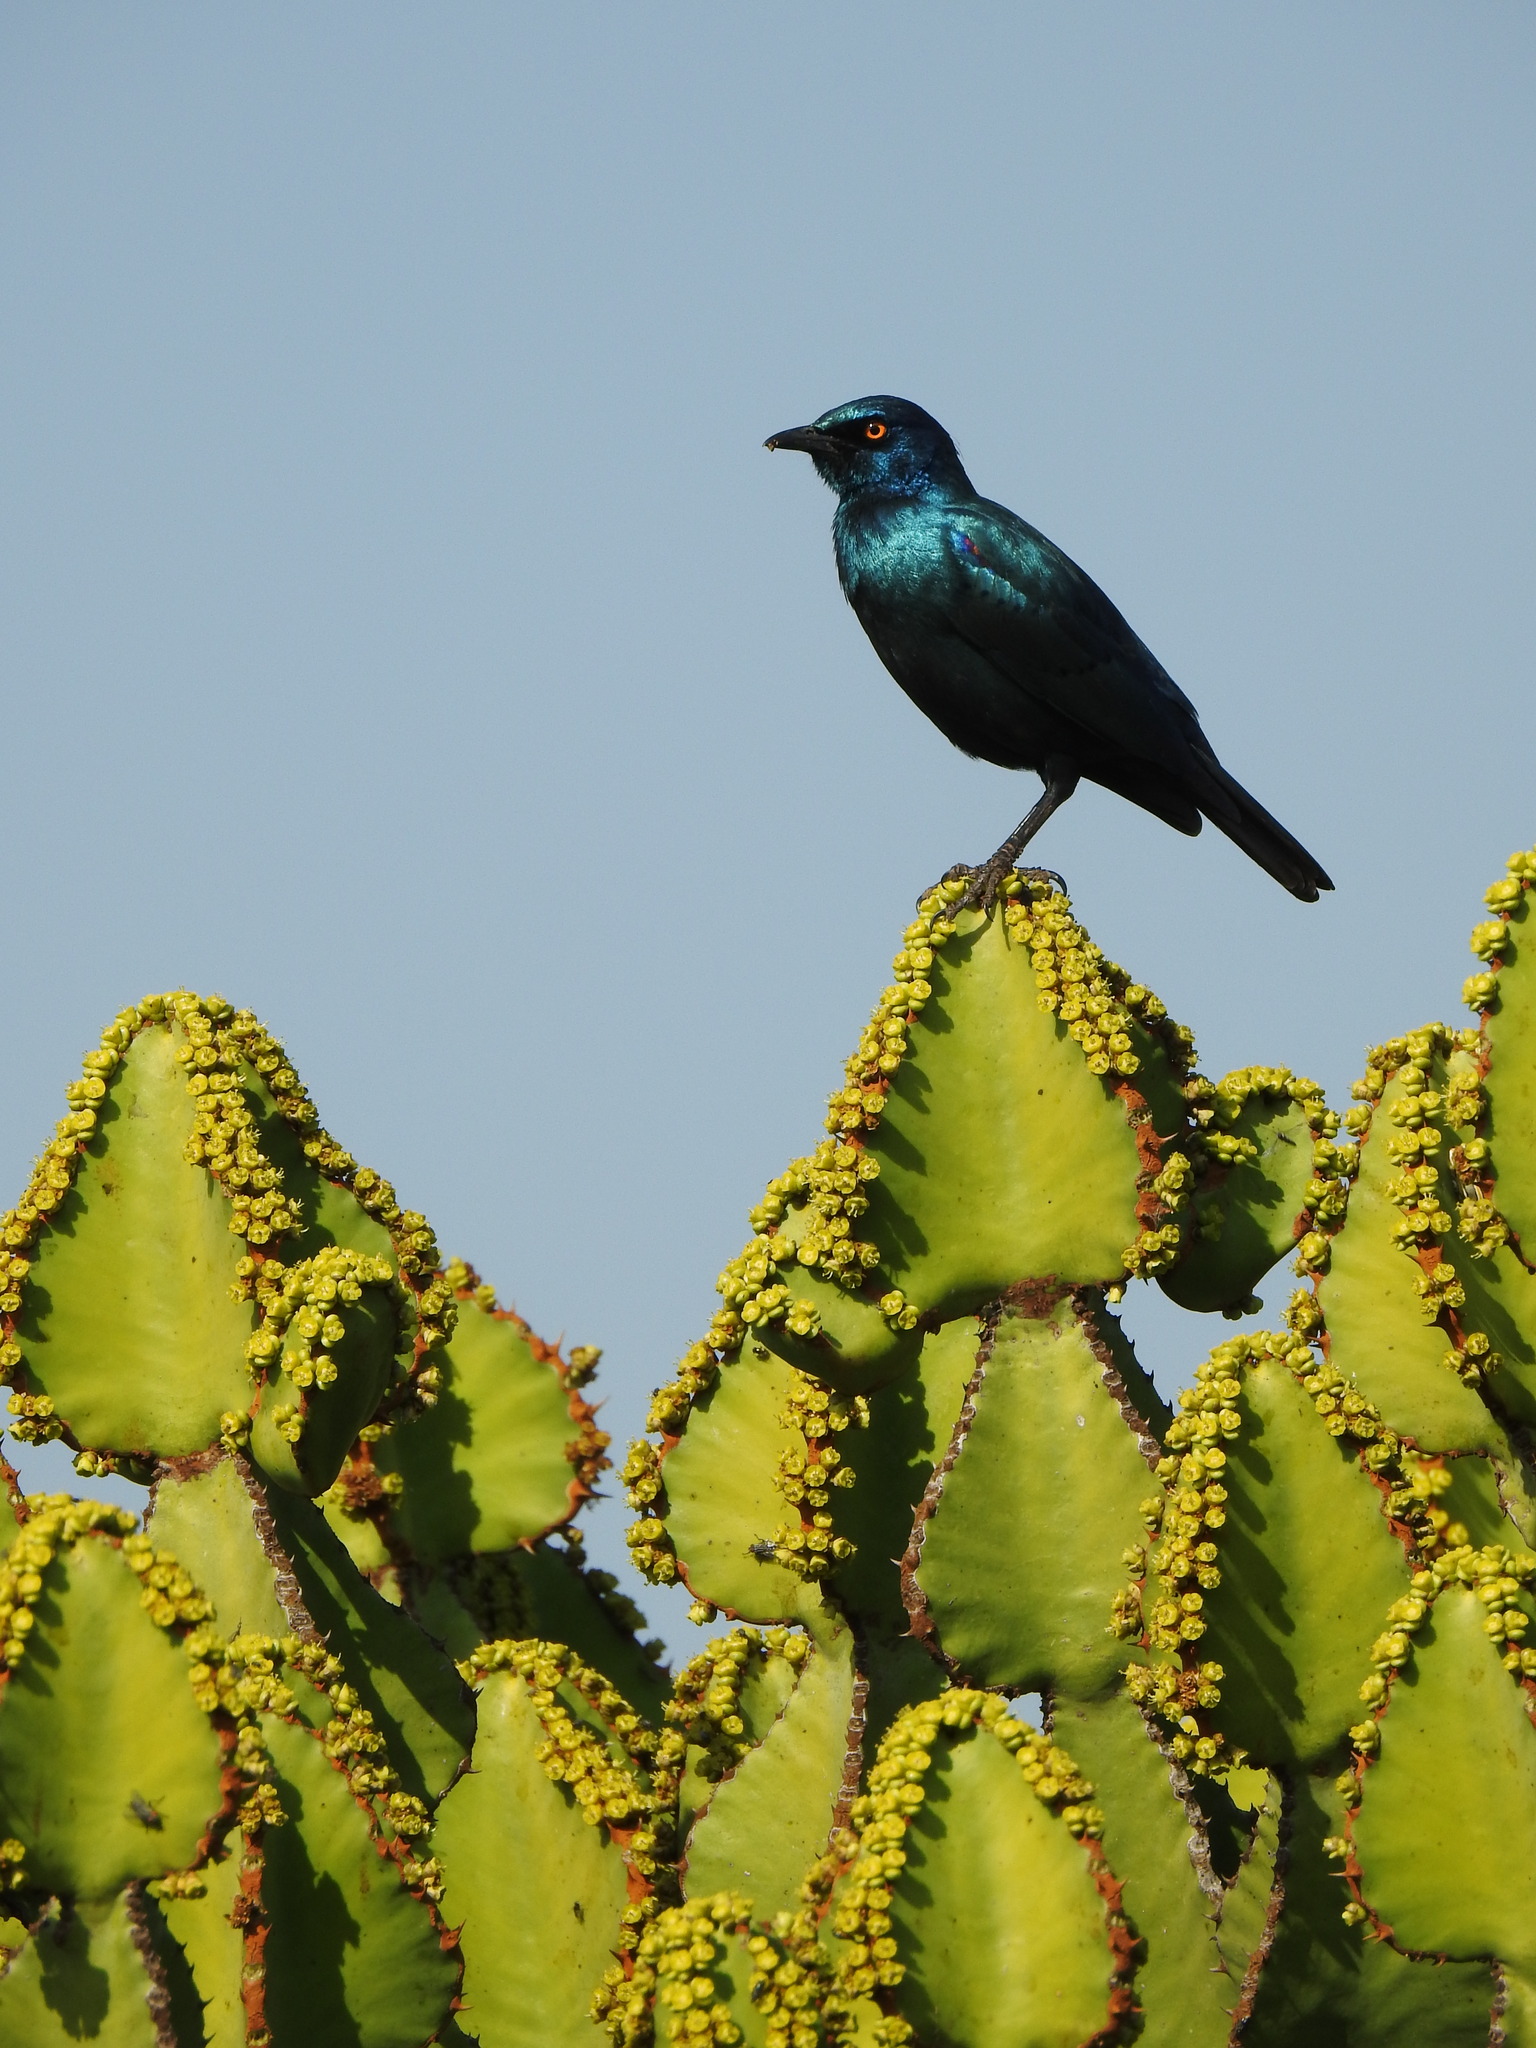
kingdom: Plantae
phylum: Tracheophyta
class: Magnoliopsida
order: Malpighiales
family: Euphorbiaceae
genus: Euphorbia
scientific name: Euphorbia cooperi
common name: Candelabra tree
